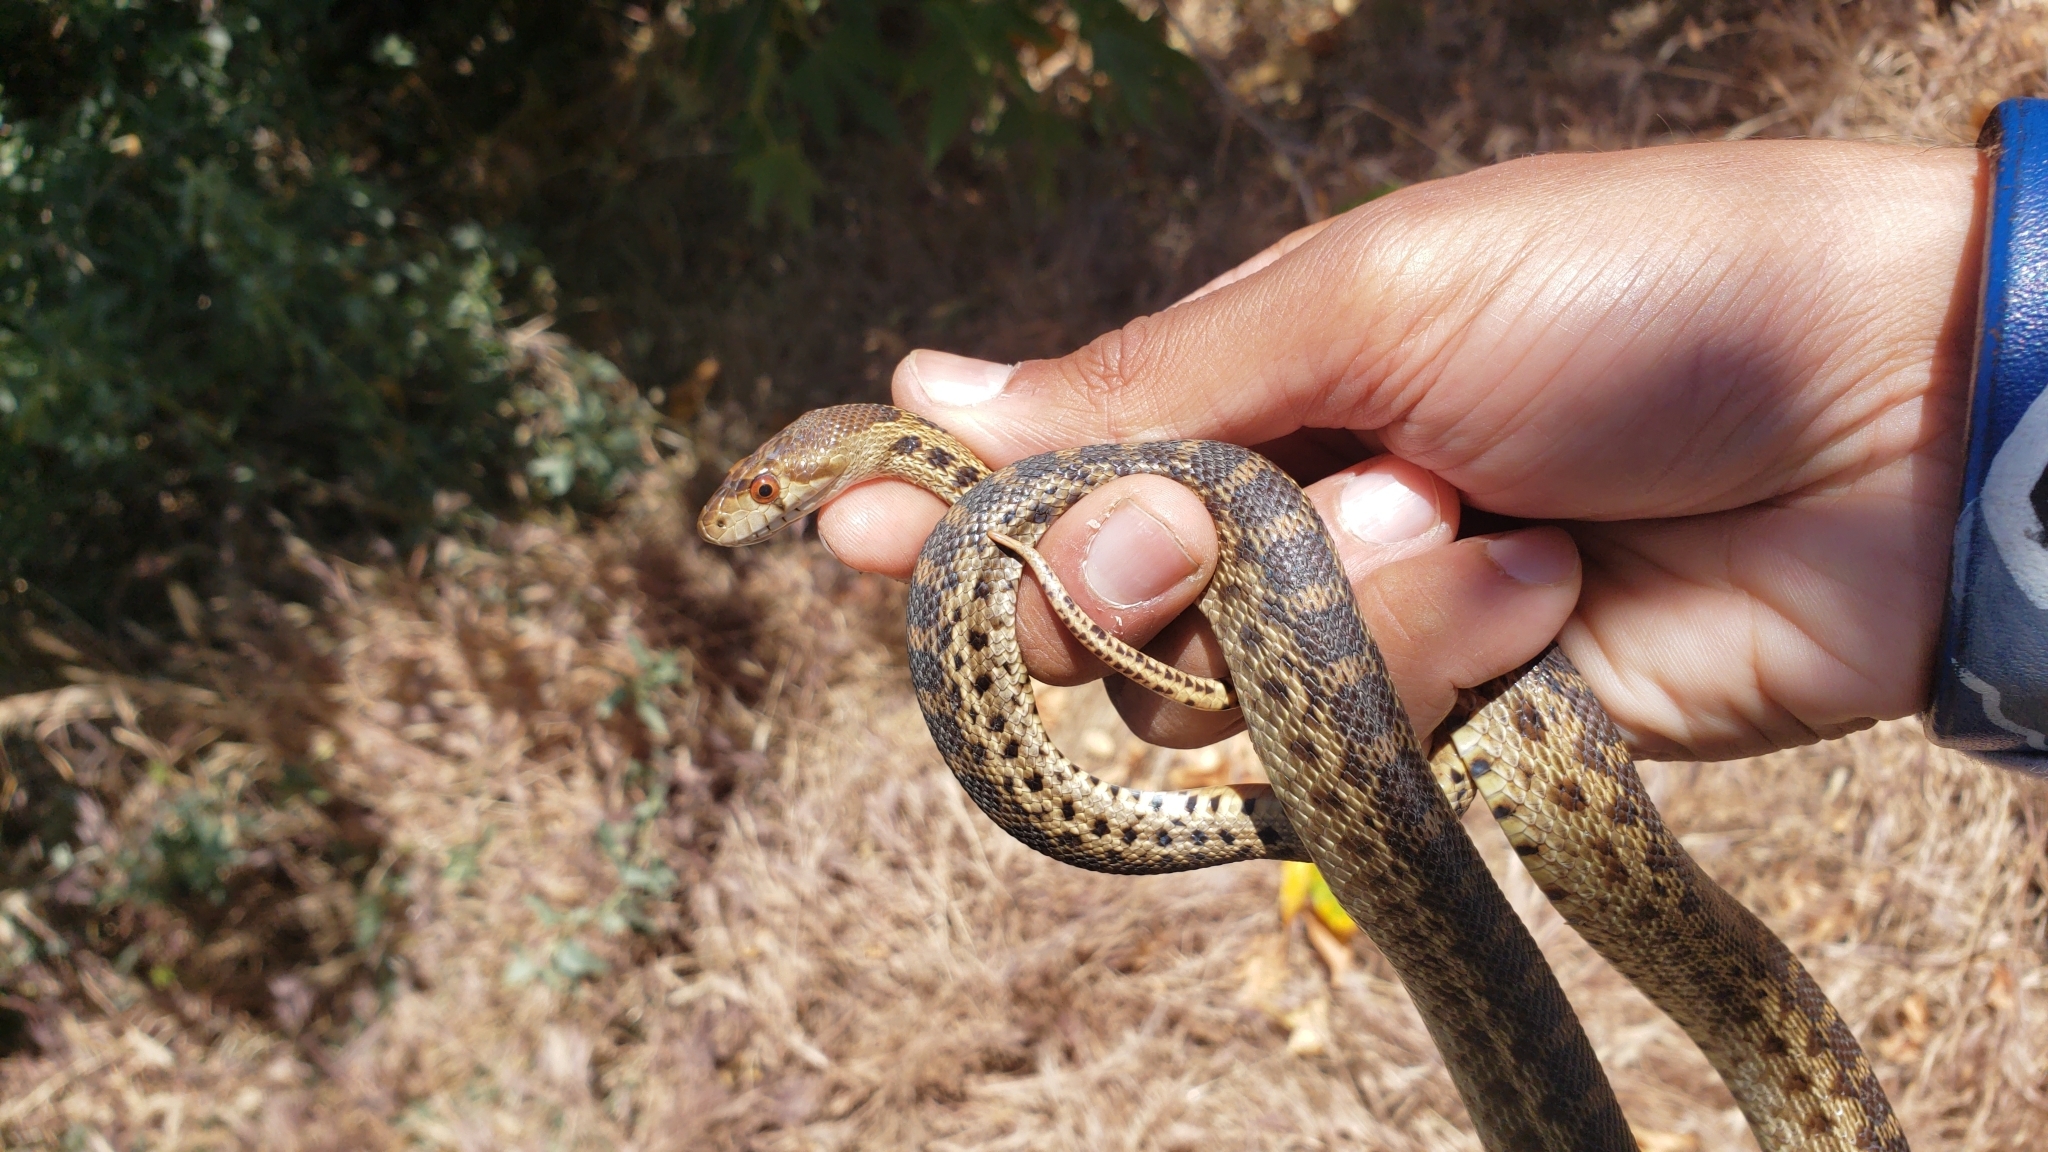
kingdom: Animalia
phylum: Chordata
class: Squamata
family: Colubridae
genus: Pituophis
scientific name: Pituophis catenifer
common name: Gopher snake
